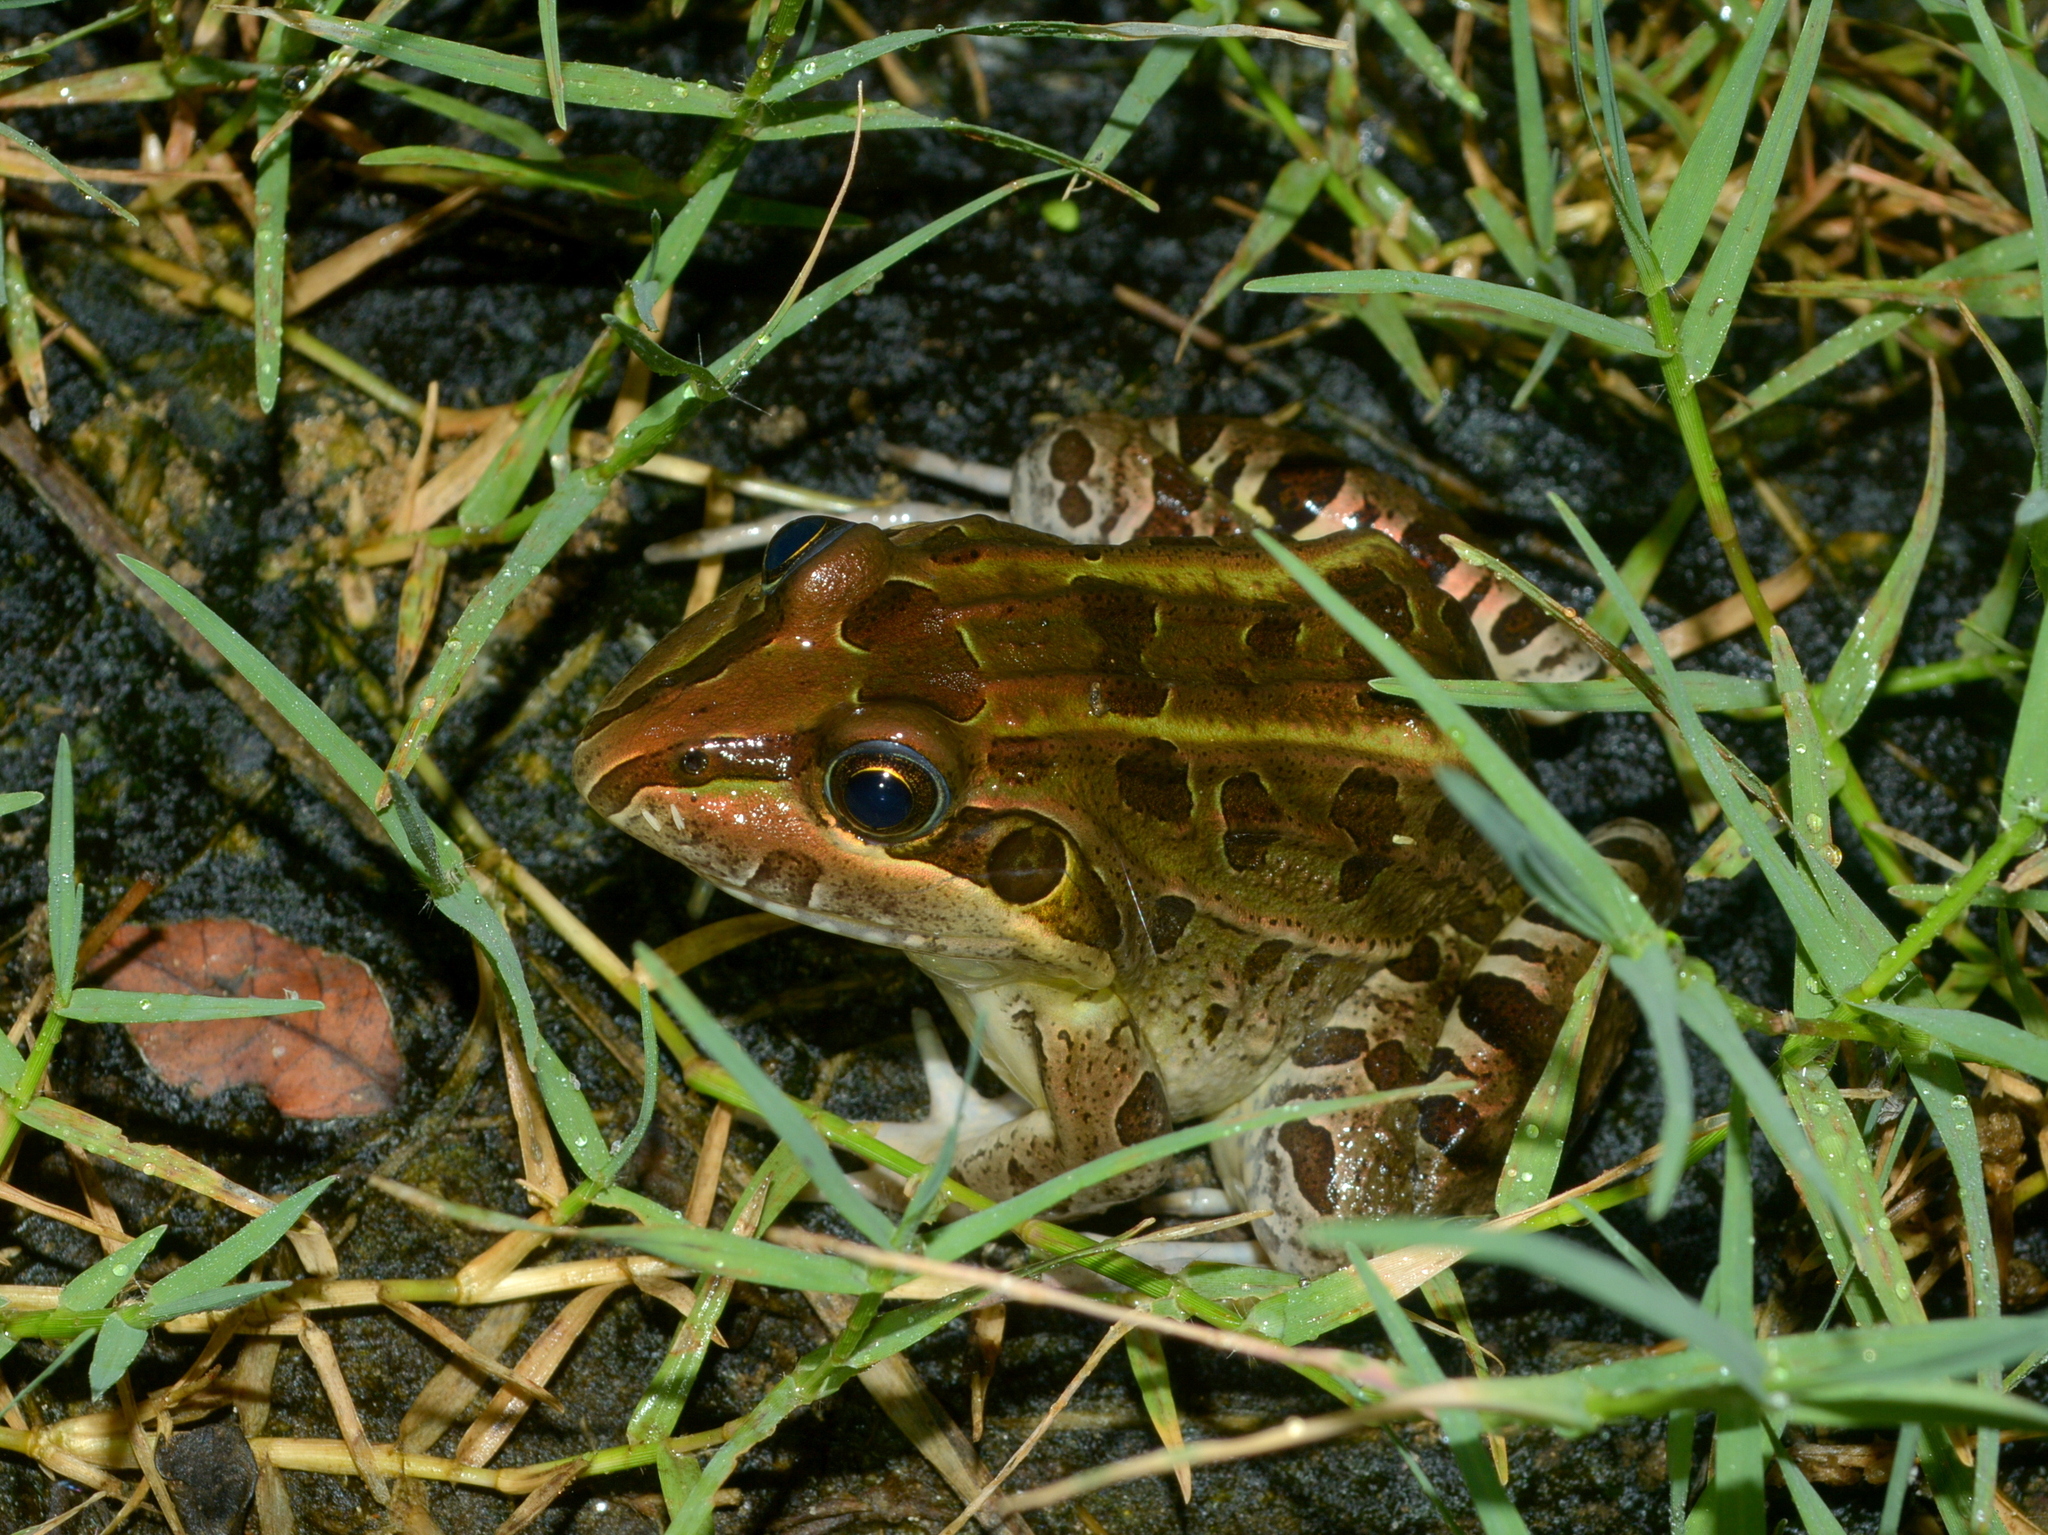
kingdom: Animalia
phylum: Chordata
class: Amphibia
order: Anura
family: Leptodactylidae
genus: Leptodactylus
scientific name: Leptodactylus luctator
